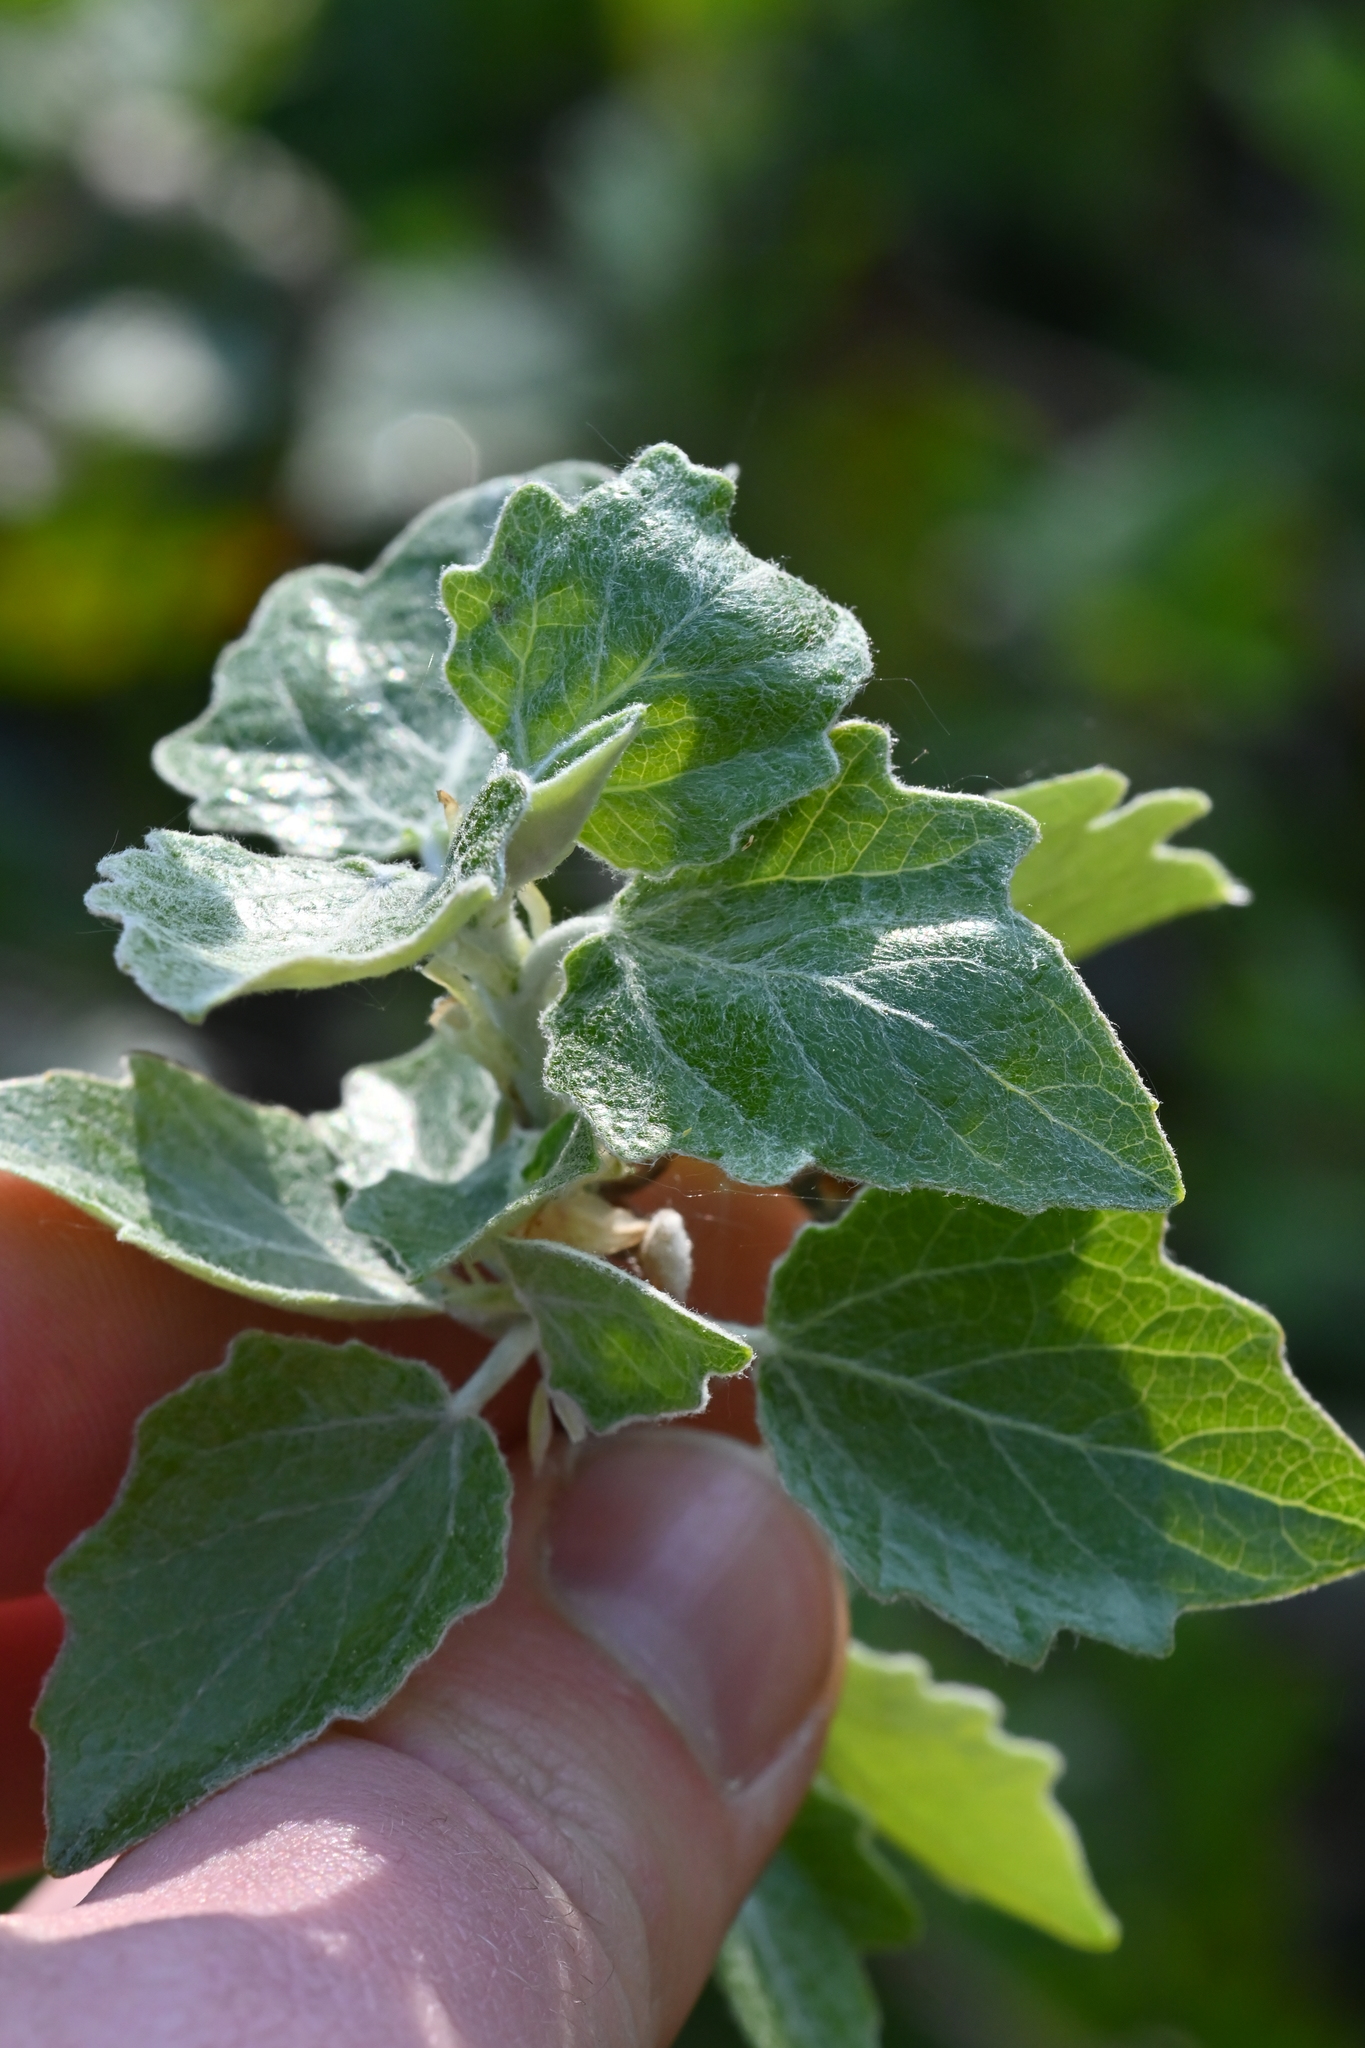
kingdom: Plantae
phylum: Tracheophyta
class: Magnoliopsida
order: Malpighiales
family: Salicaceae
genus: Populus
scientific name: Populus alba
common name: White poplar
